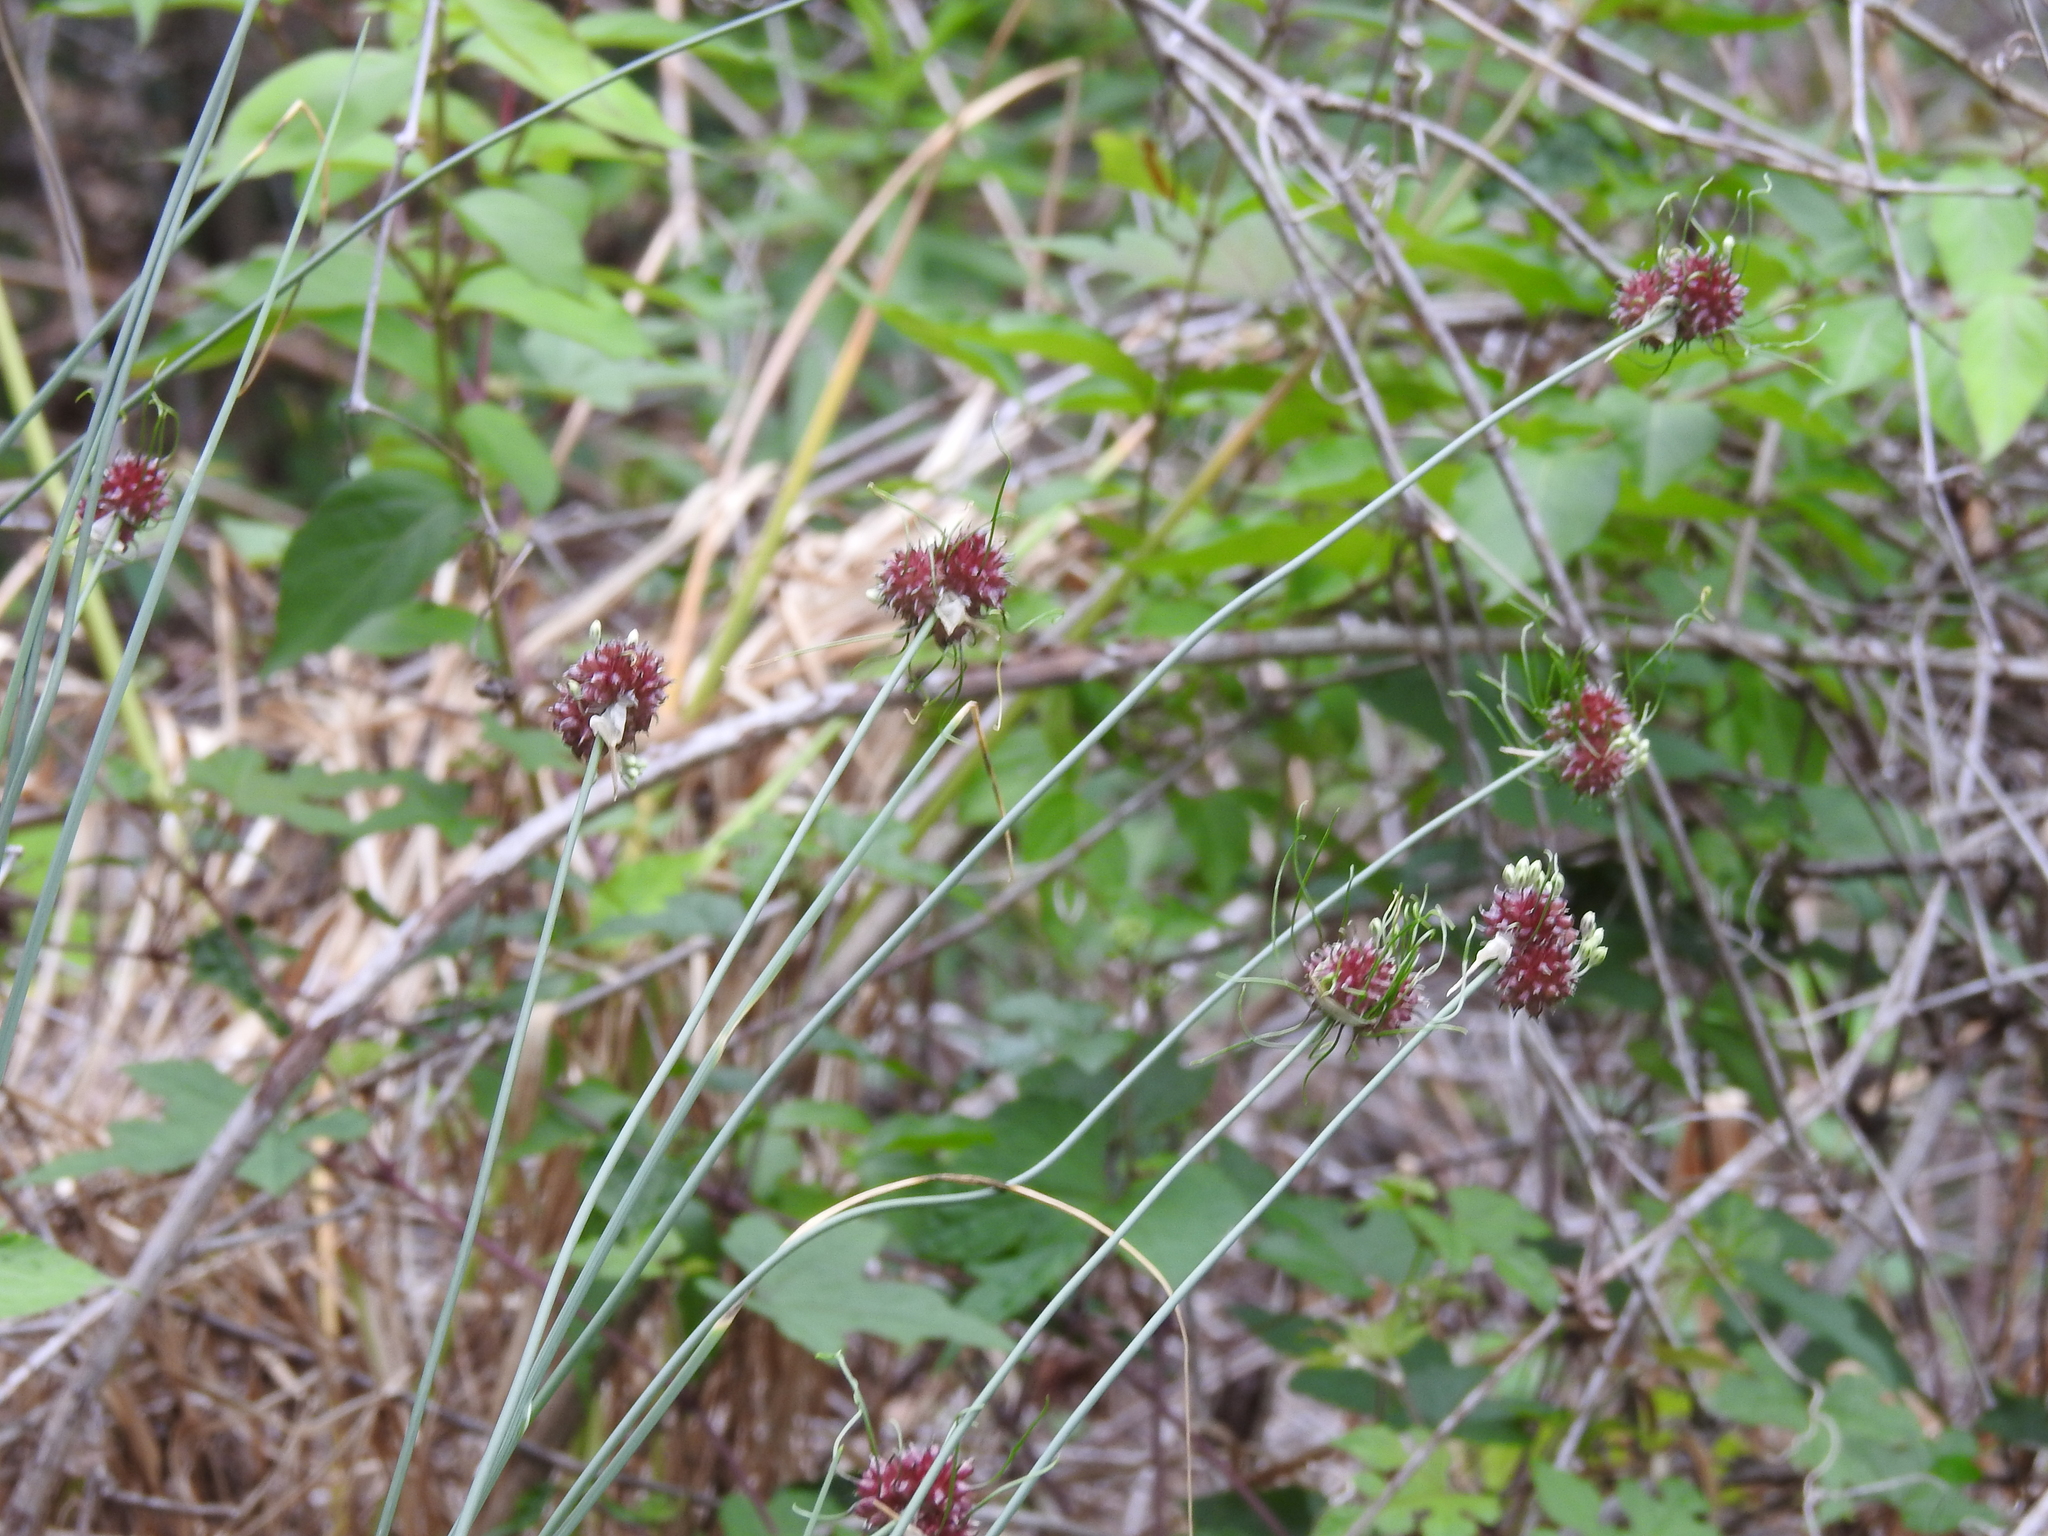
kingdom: Plantae
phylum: Tracheophyta
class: Liliopsida
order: Asparagales
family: Amaryllidaceae
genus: Allium
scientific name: Allium vineale
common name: Crow garlic
